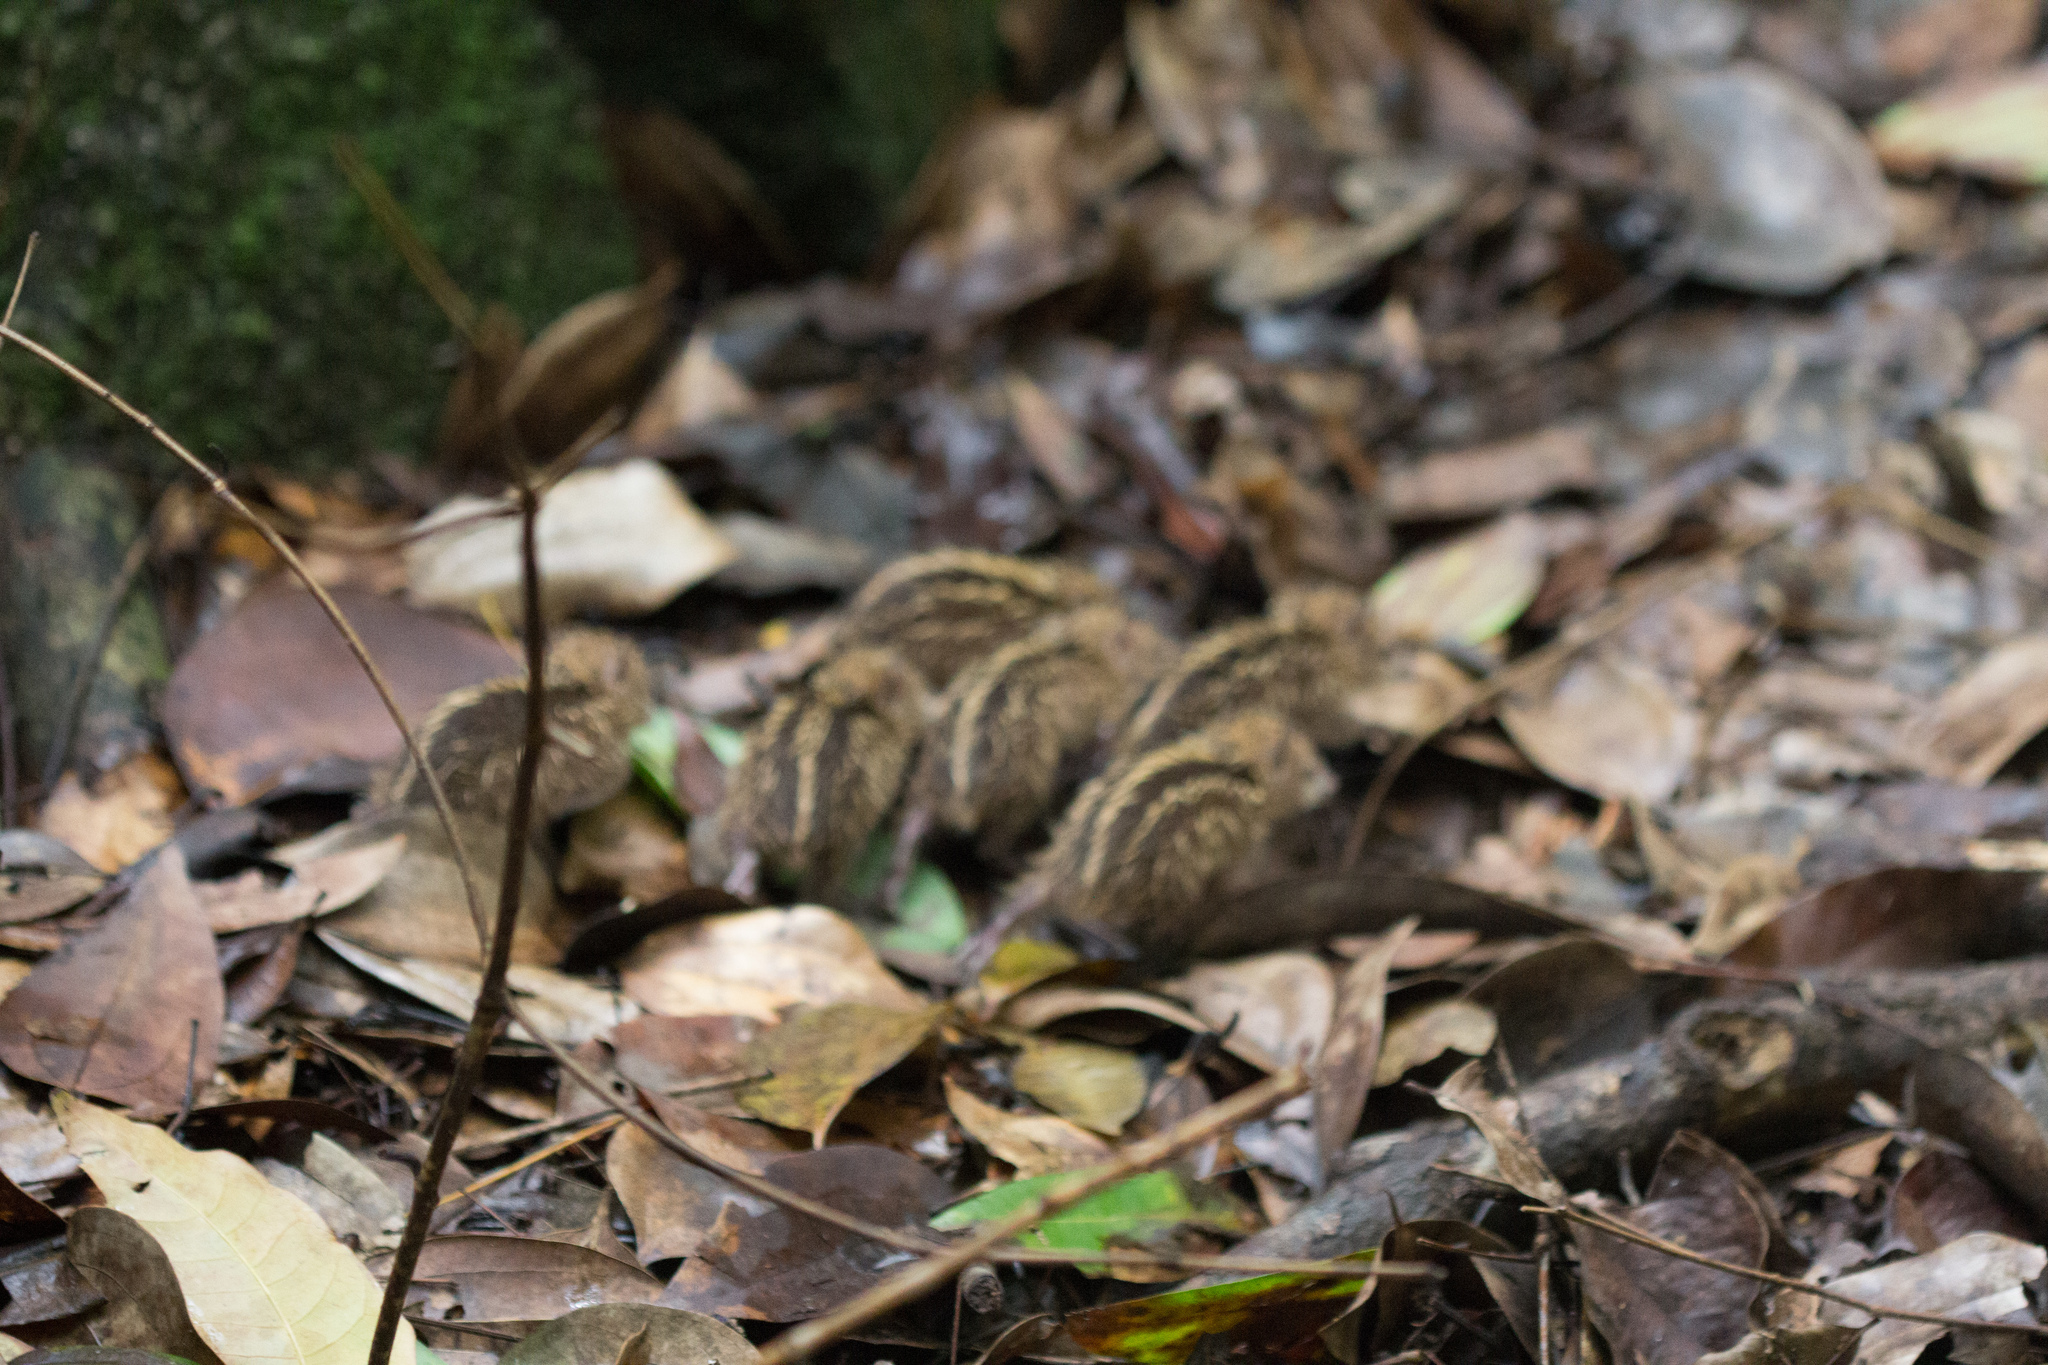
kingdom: Animalia
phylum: Chordata
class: Mammalia
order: Afrosoricida
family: Tenrecidae
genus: Tenrec
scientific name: Tenrec ecaudatus
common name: Common tenrec
